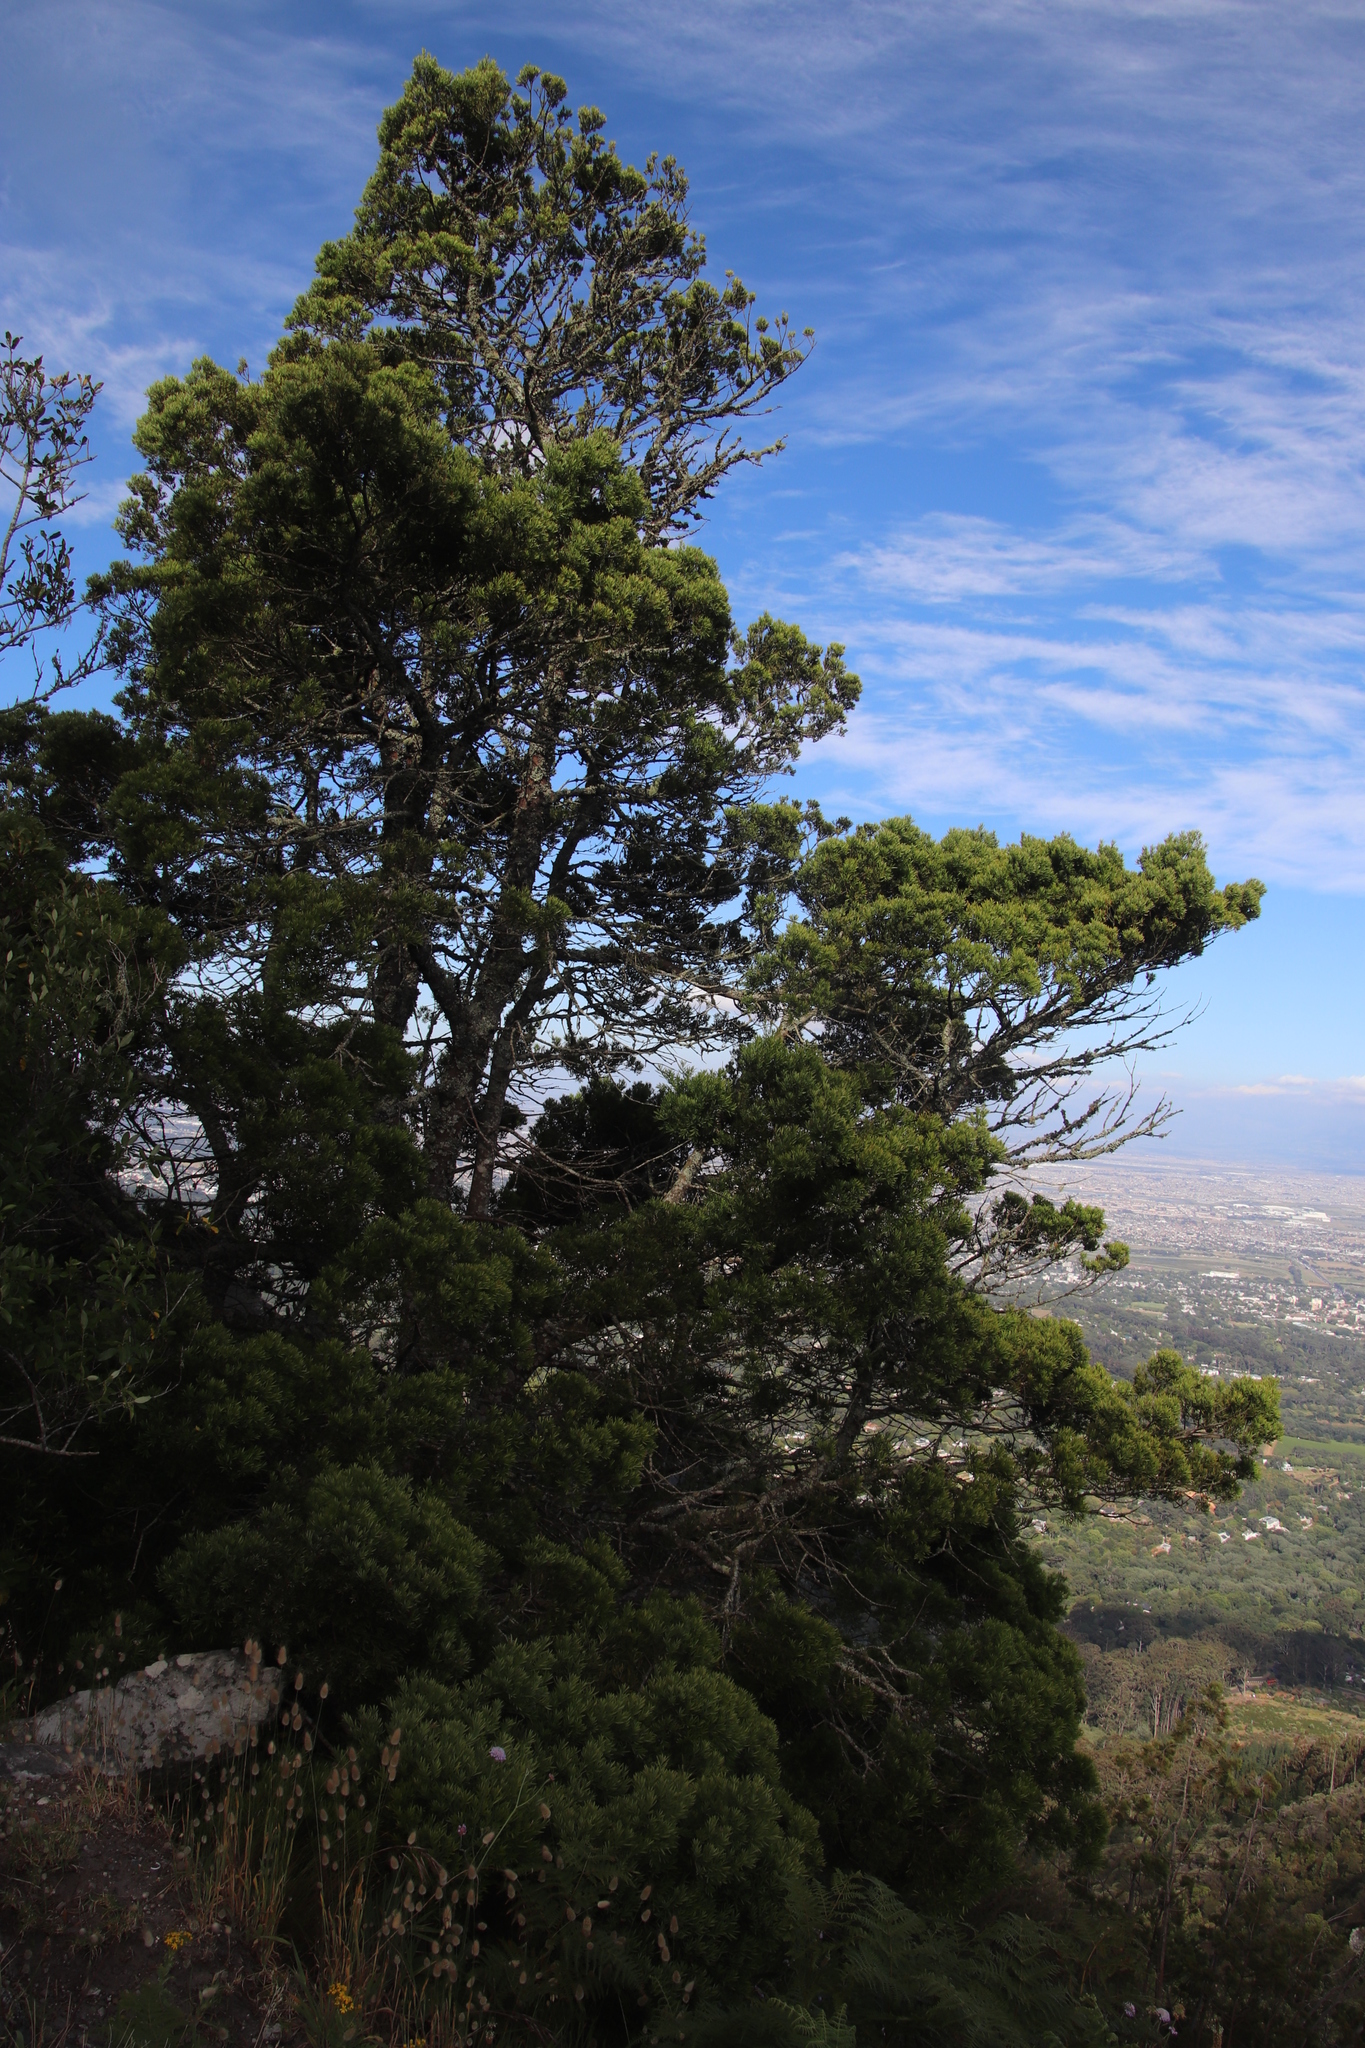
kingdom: Plantae
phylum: Tracheophyta
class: Pinopsida
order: Pinales
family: Podocarpaceae
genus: Afrocarpus
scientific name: Afrocarpus falcatus
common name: Bastard yellowwood
